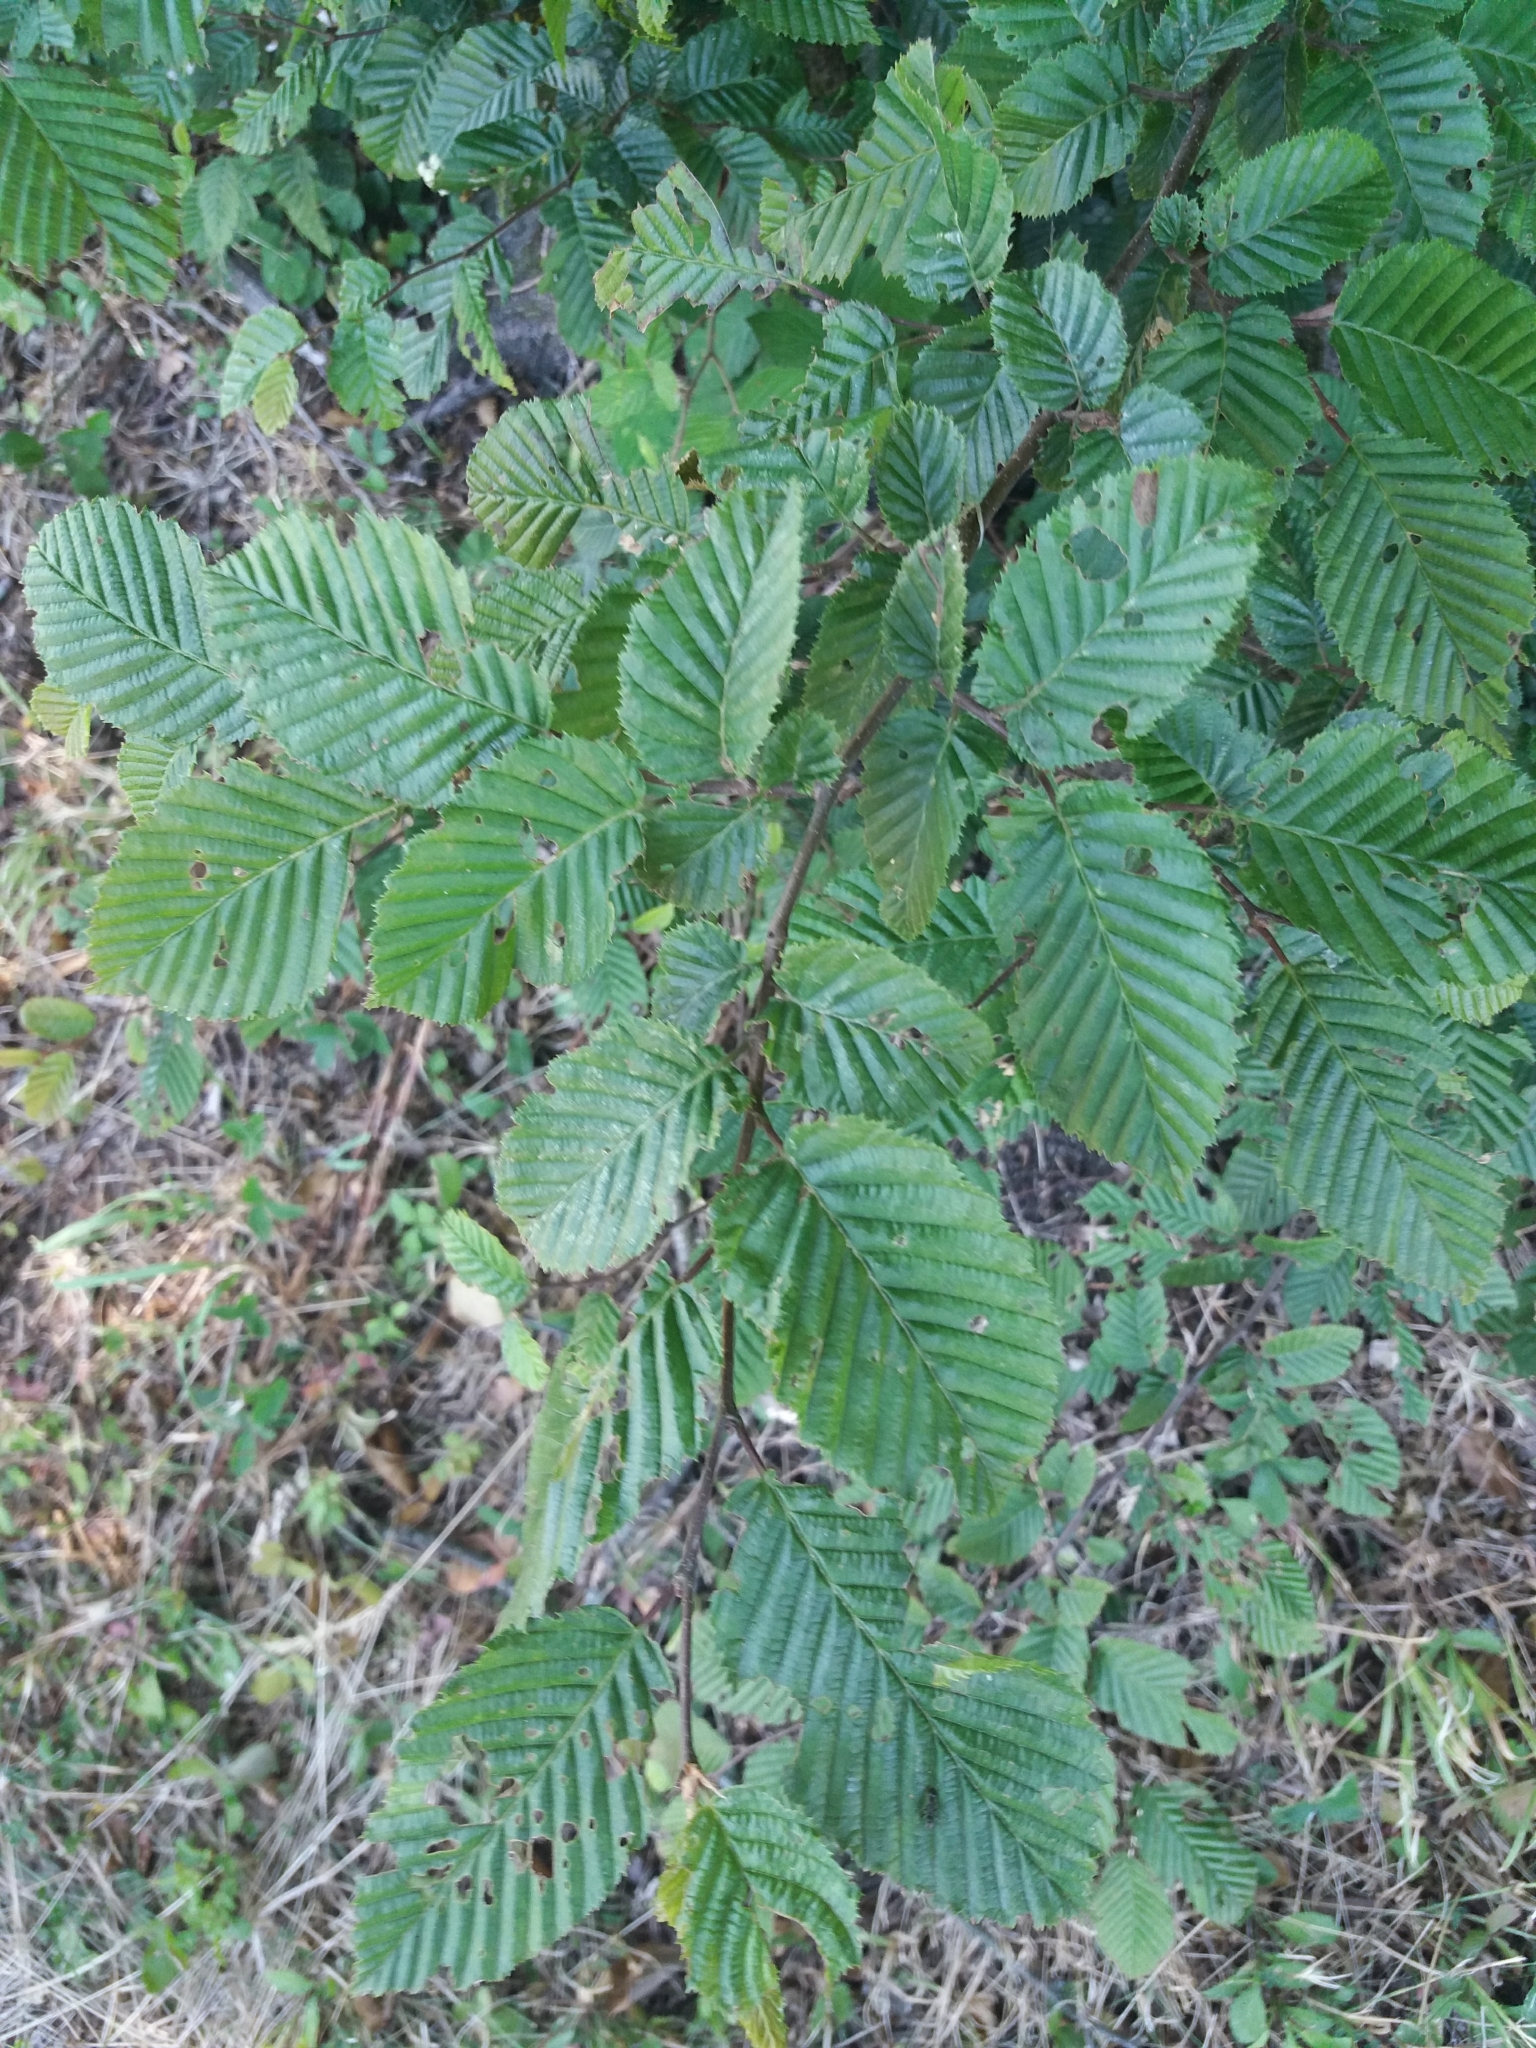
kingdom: Plantae
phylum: Tracheophyta
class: Magnoliopsida
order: Fagales
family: Betulaceae
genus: Carpinus
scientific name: Carpinus betulus
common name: Hornbeam
